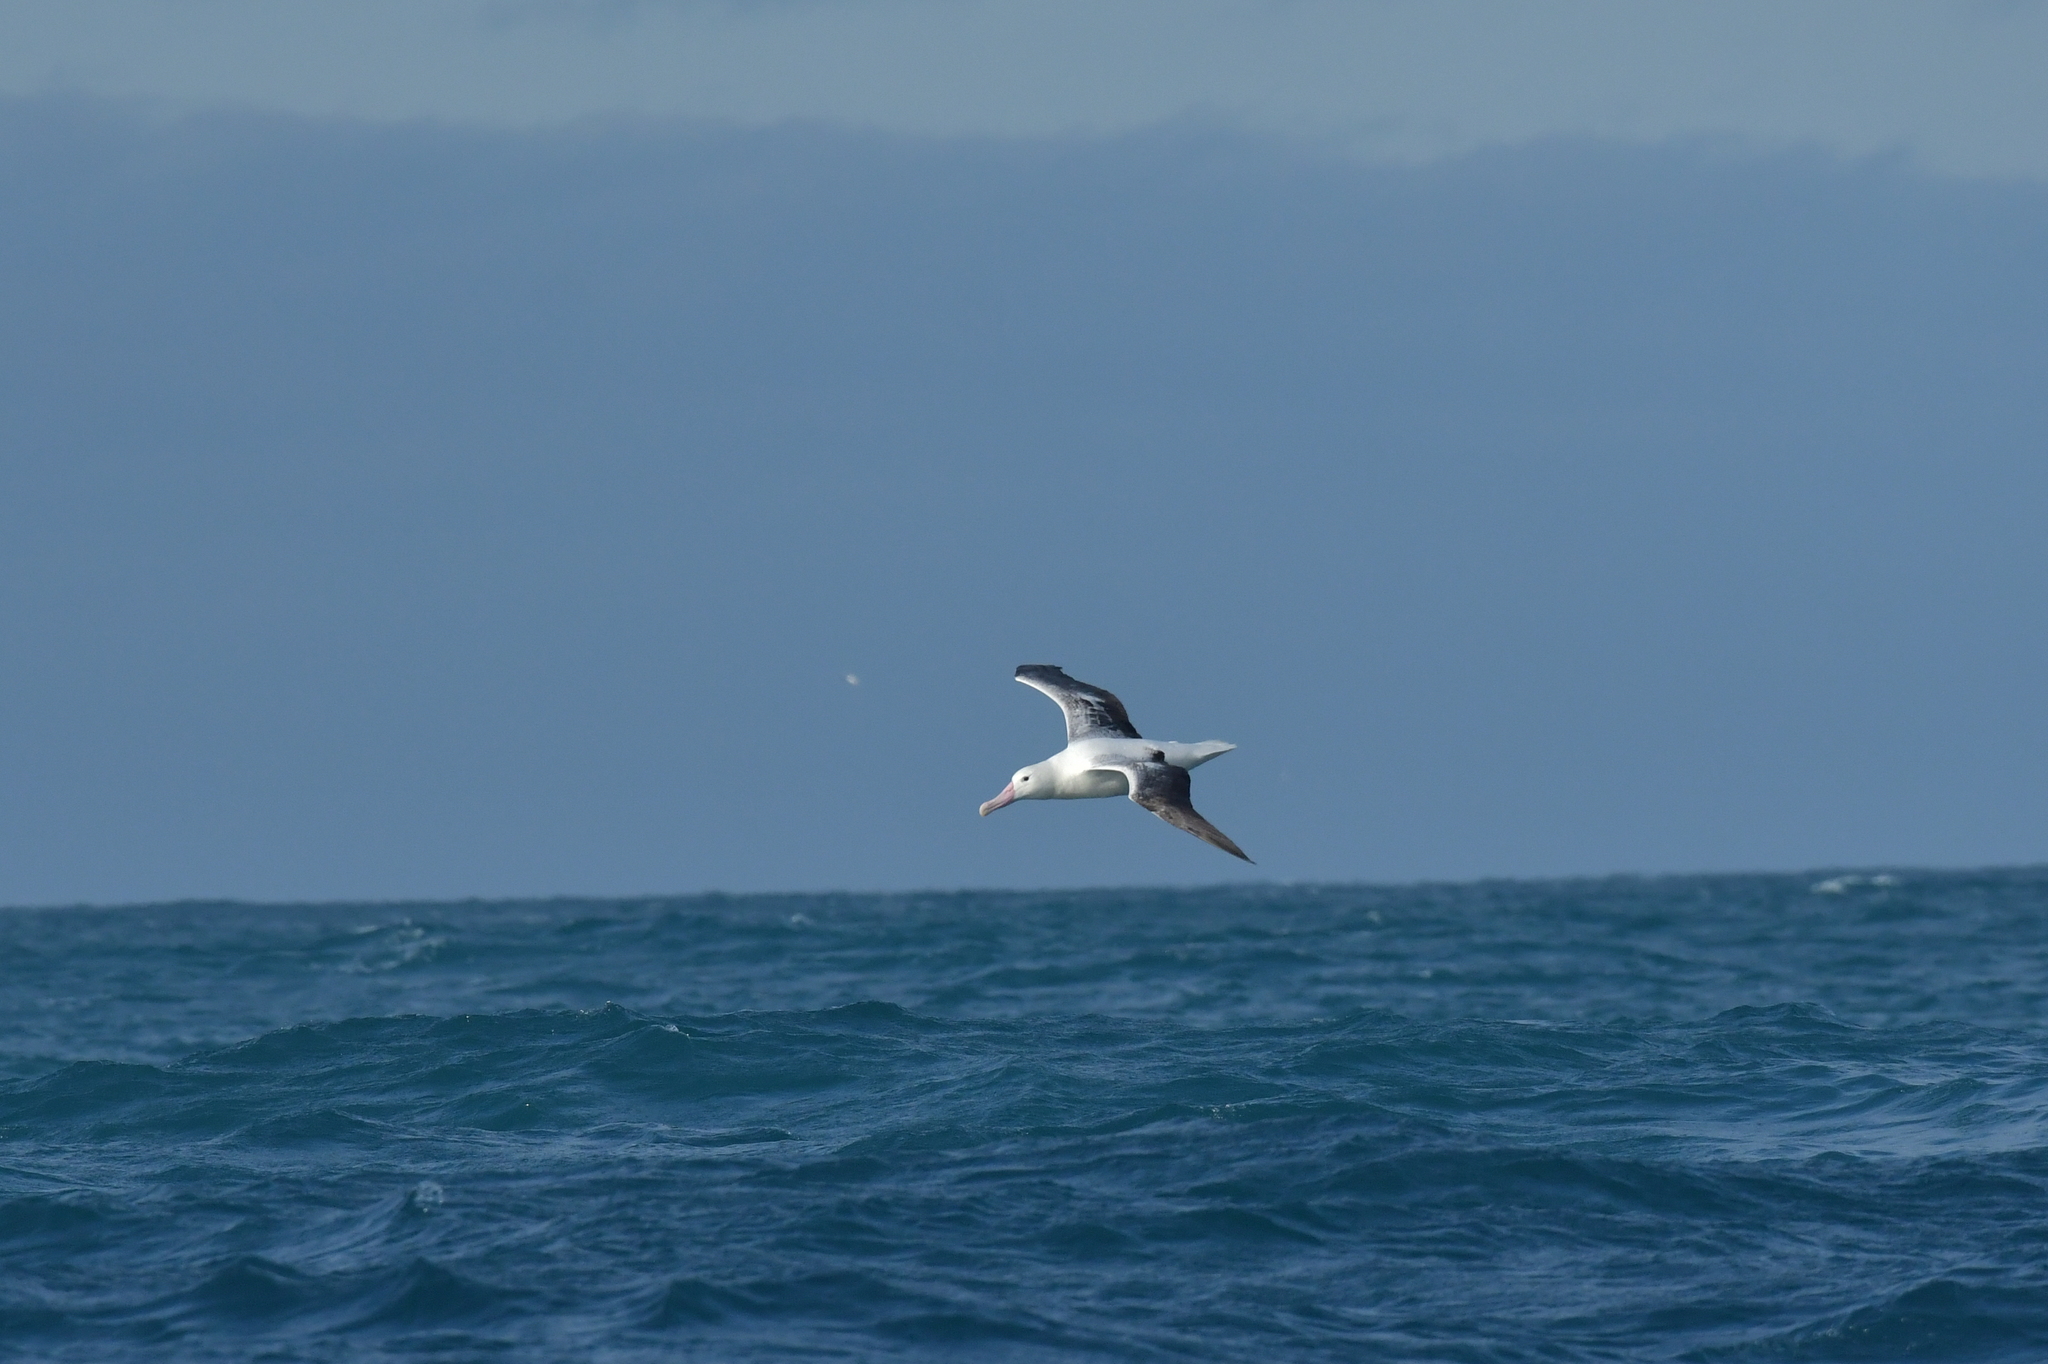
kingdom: Animalia
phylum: Chordata
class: Aves
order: Procellariiformes
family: Diomedeidae
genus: Diomedea
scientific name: Diomedea epomophora
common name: Southern royal albatross
